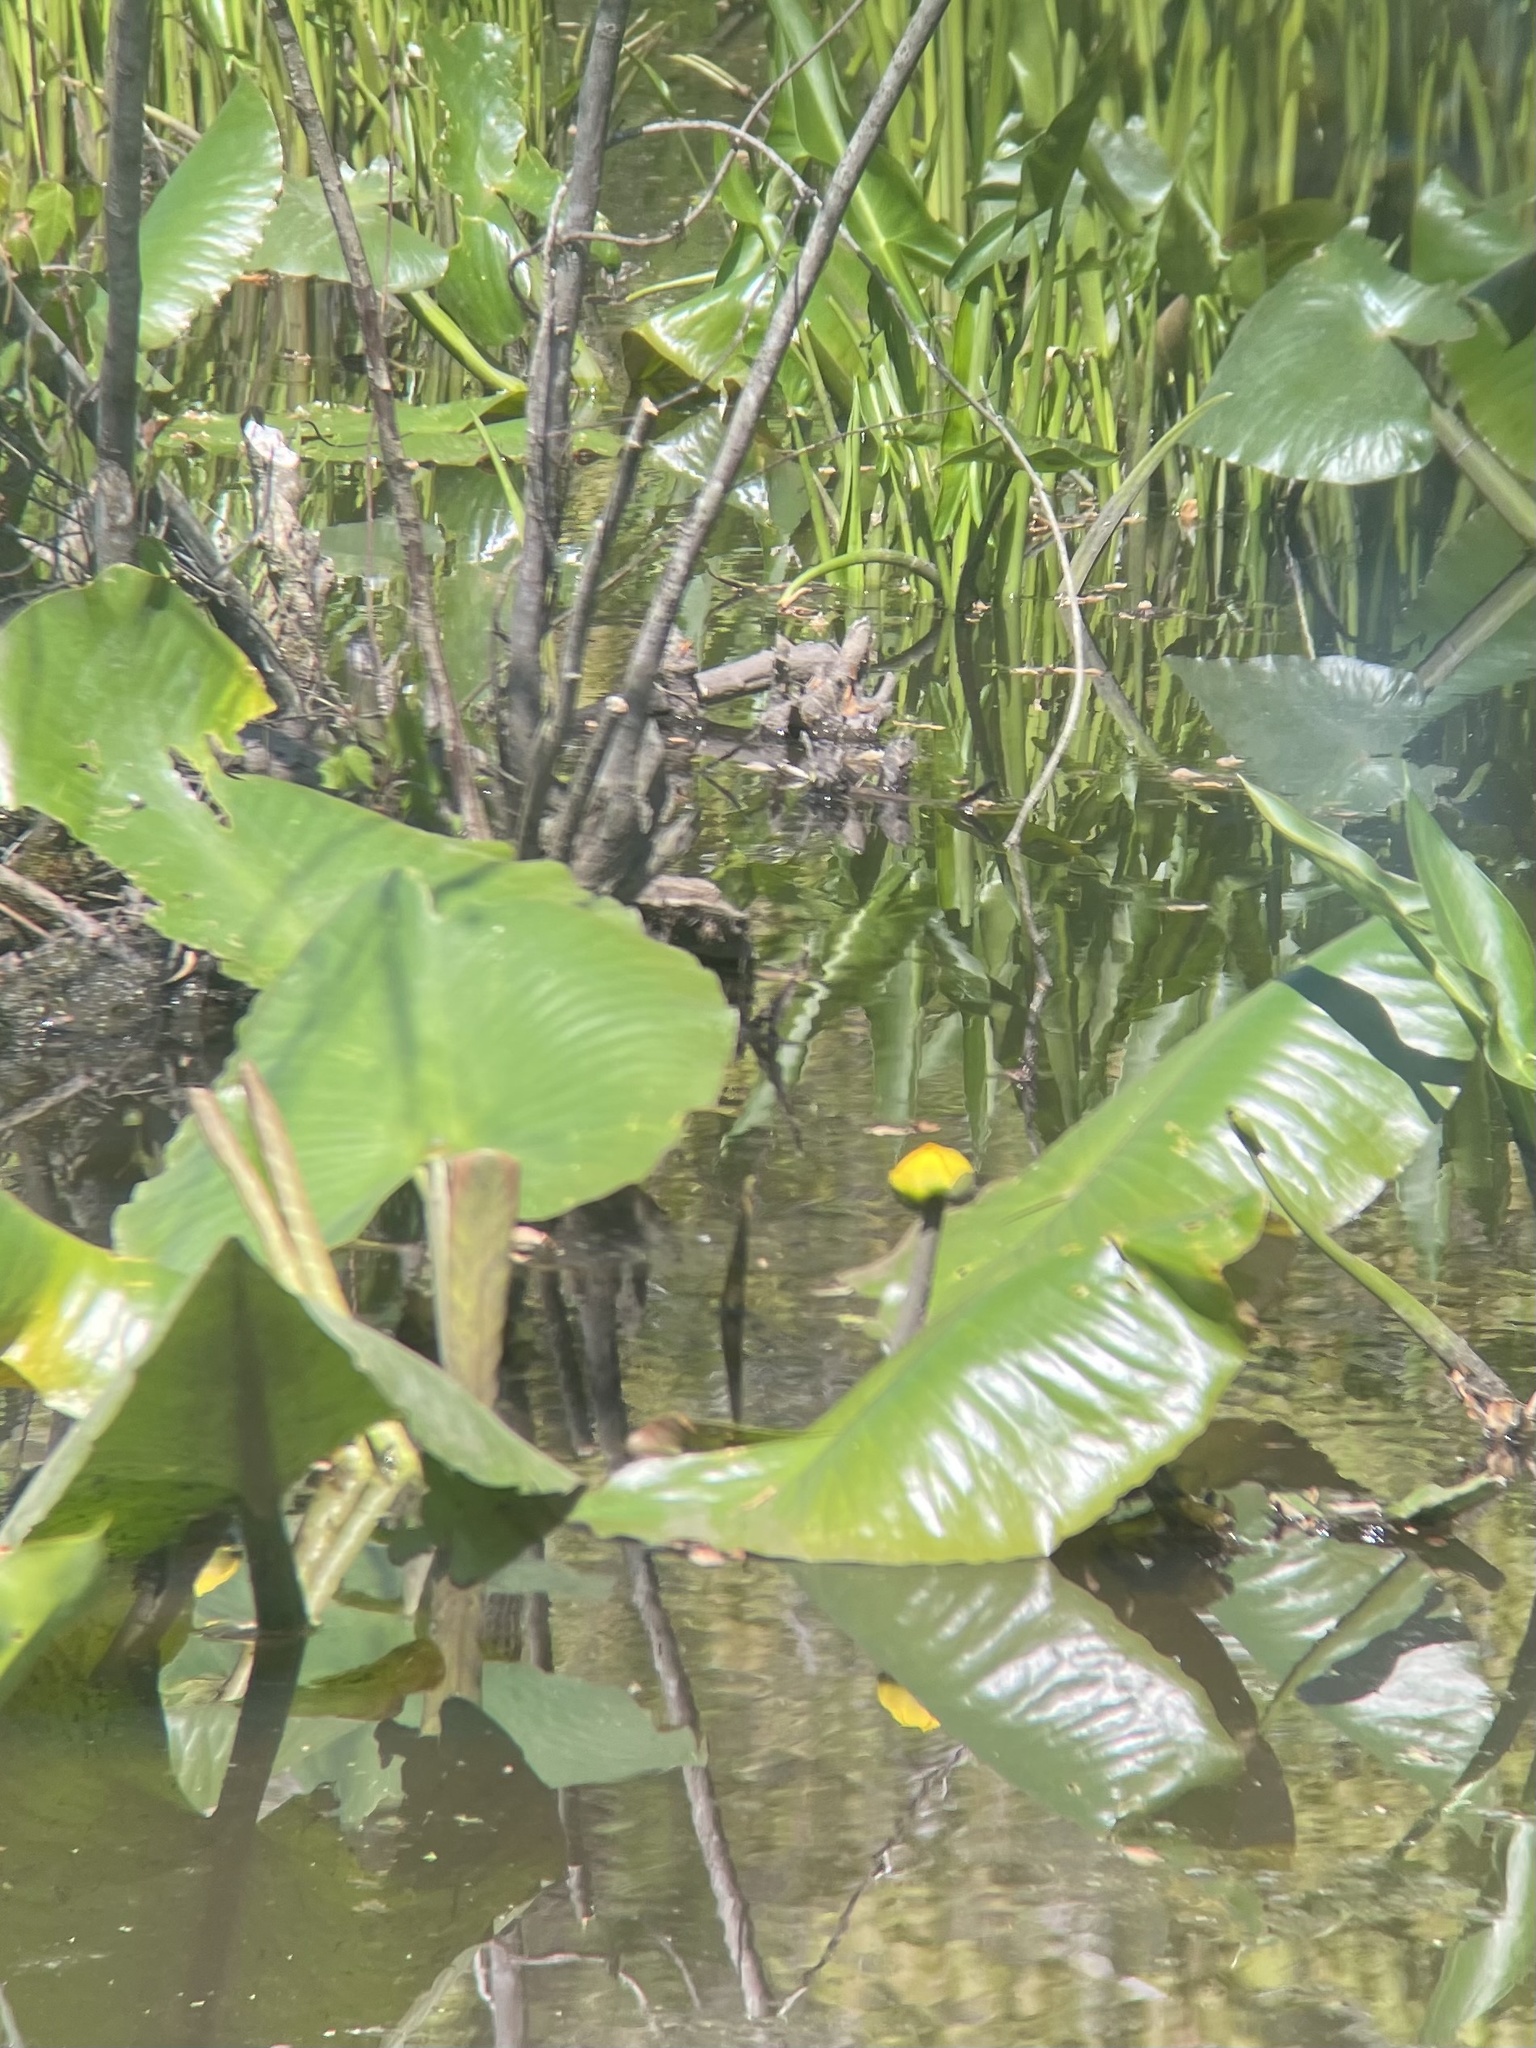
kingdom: Plantae
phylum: Tracheophyta
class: Magnoliopsida
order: Nymphaeales
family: Nymphaeaceae
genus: Nuphar
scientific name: Nuphar advena
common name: Spatter-dock
